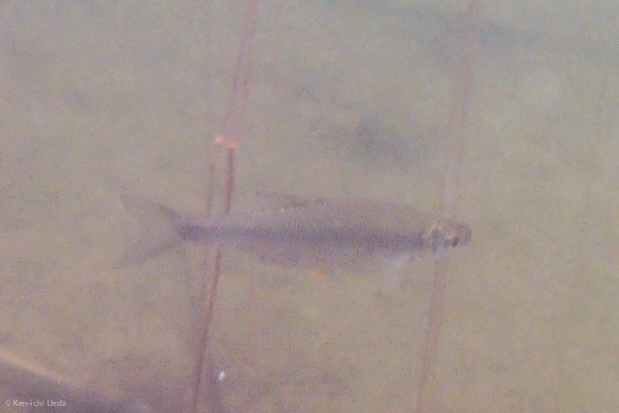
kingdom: Animalia
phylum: Chordata
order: Cypriniformes
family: Cyprinidae
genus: Notemigonus
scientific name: Notemigonus crysoleucas
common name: Golden shiner
